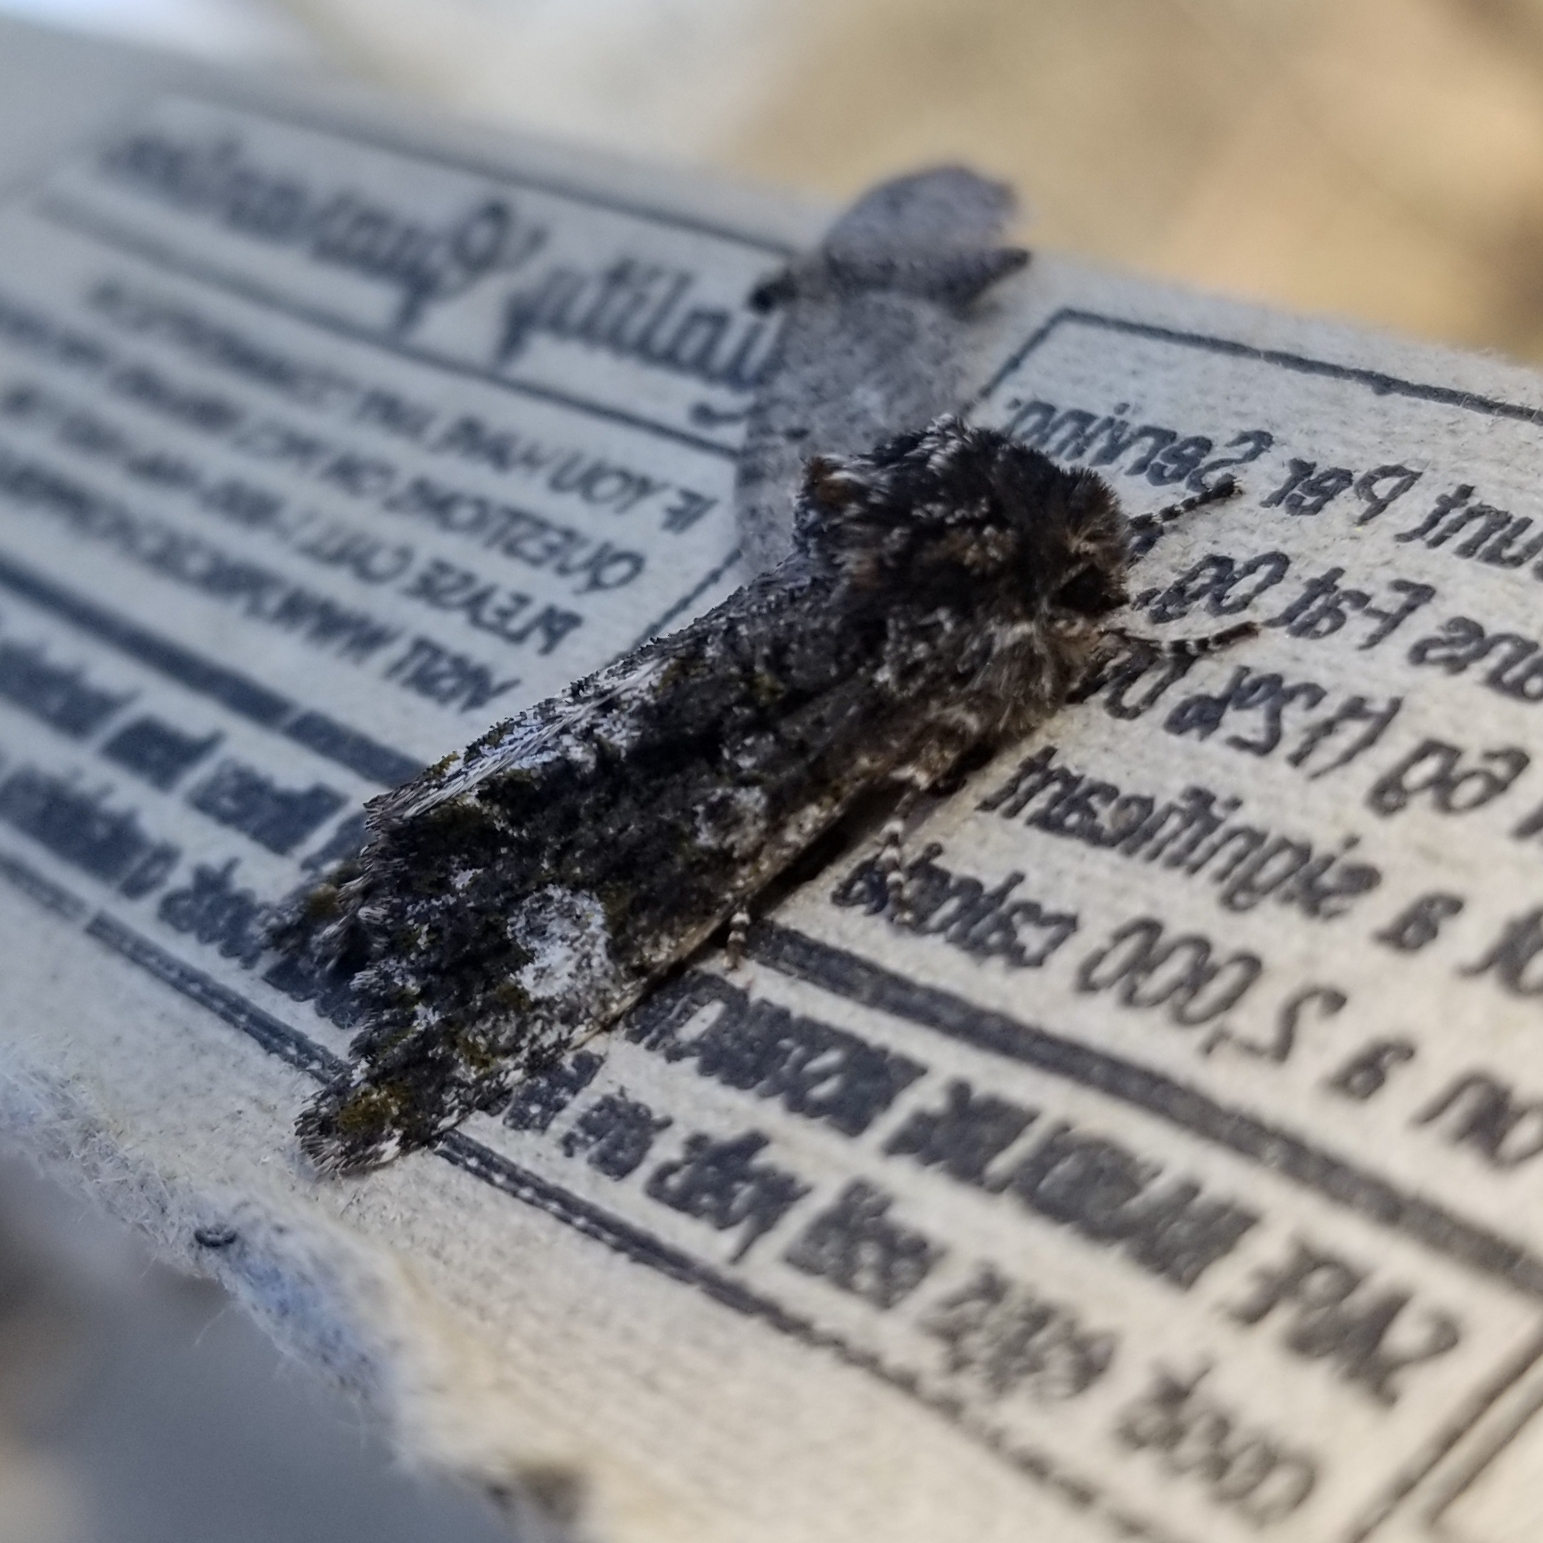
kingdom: Animalia
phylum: Arthropoda
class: Insecta
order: Lepidoptera
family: Noctuidae
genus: Psaphida
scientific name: Psaphida grotei
